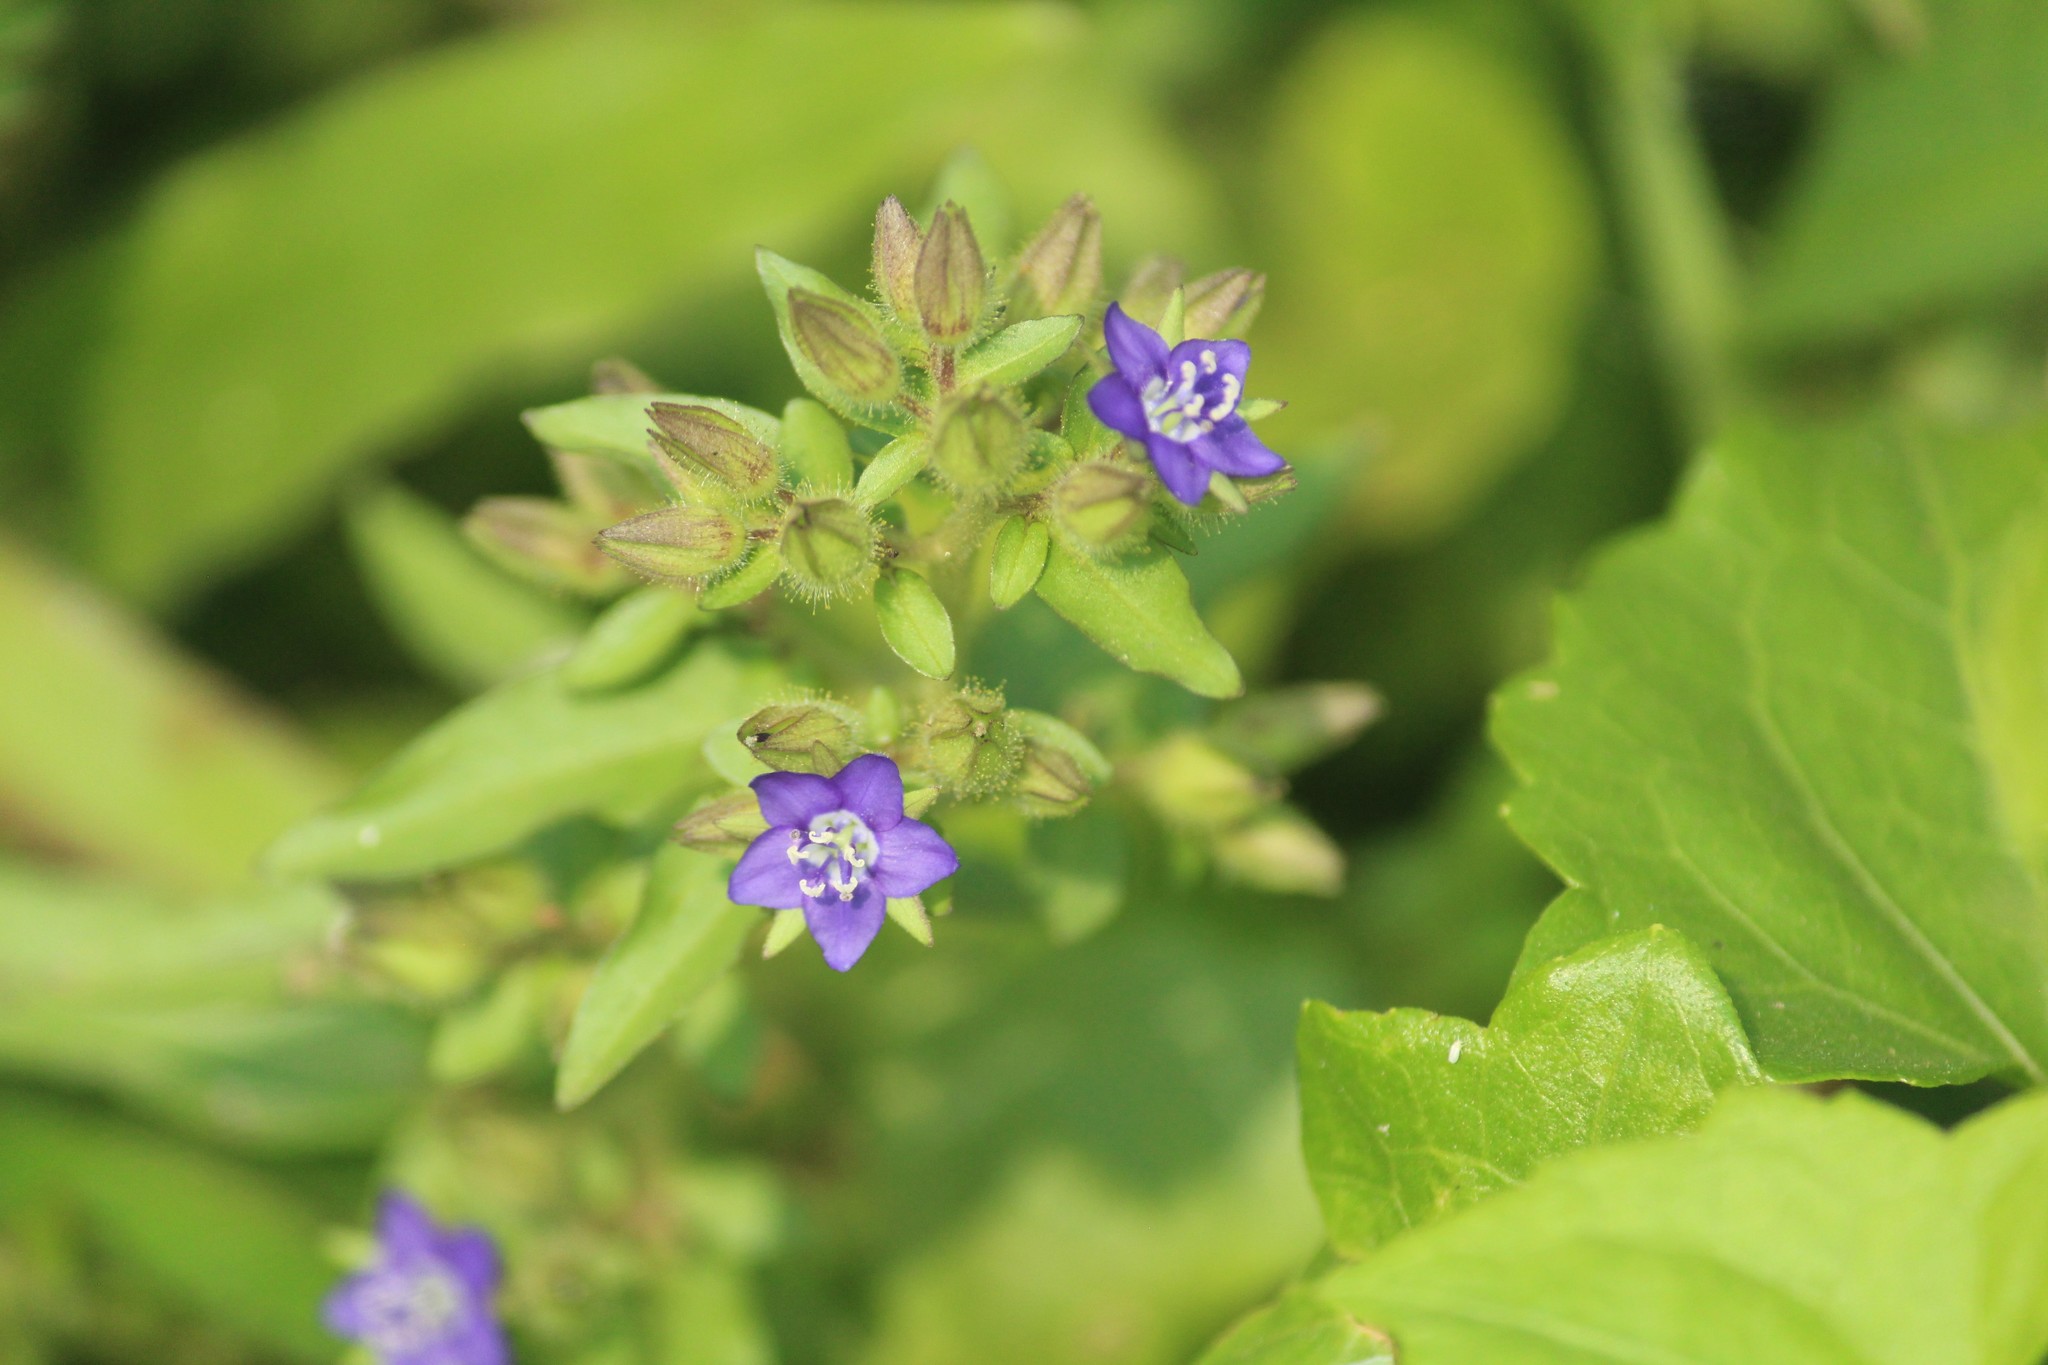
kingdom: Plantae
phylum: Tracheophyta
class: Magnoliopsida
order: Solanales
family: Hydroleaceae
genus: Hydrolea
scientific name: Hydrolea zeylanica
